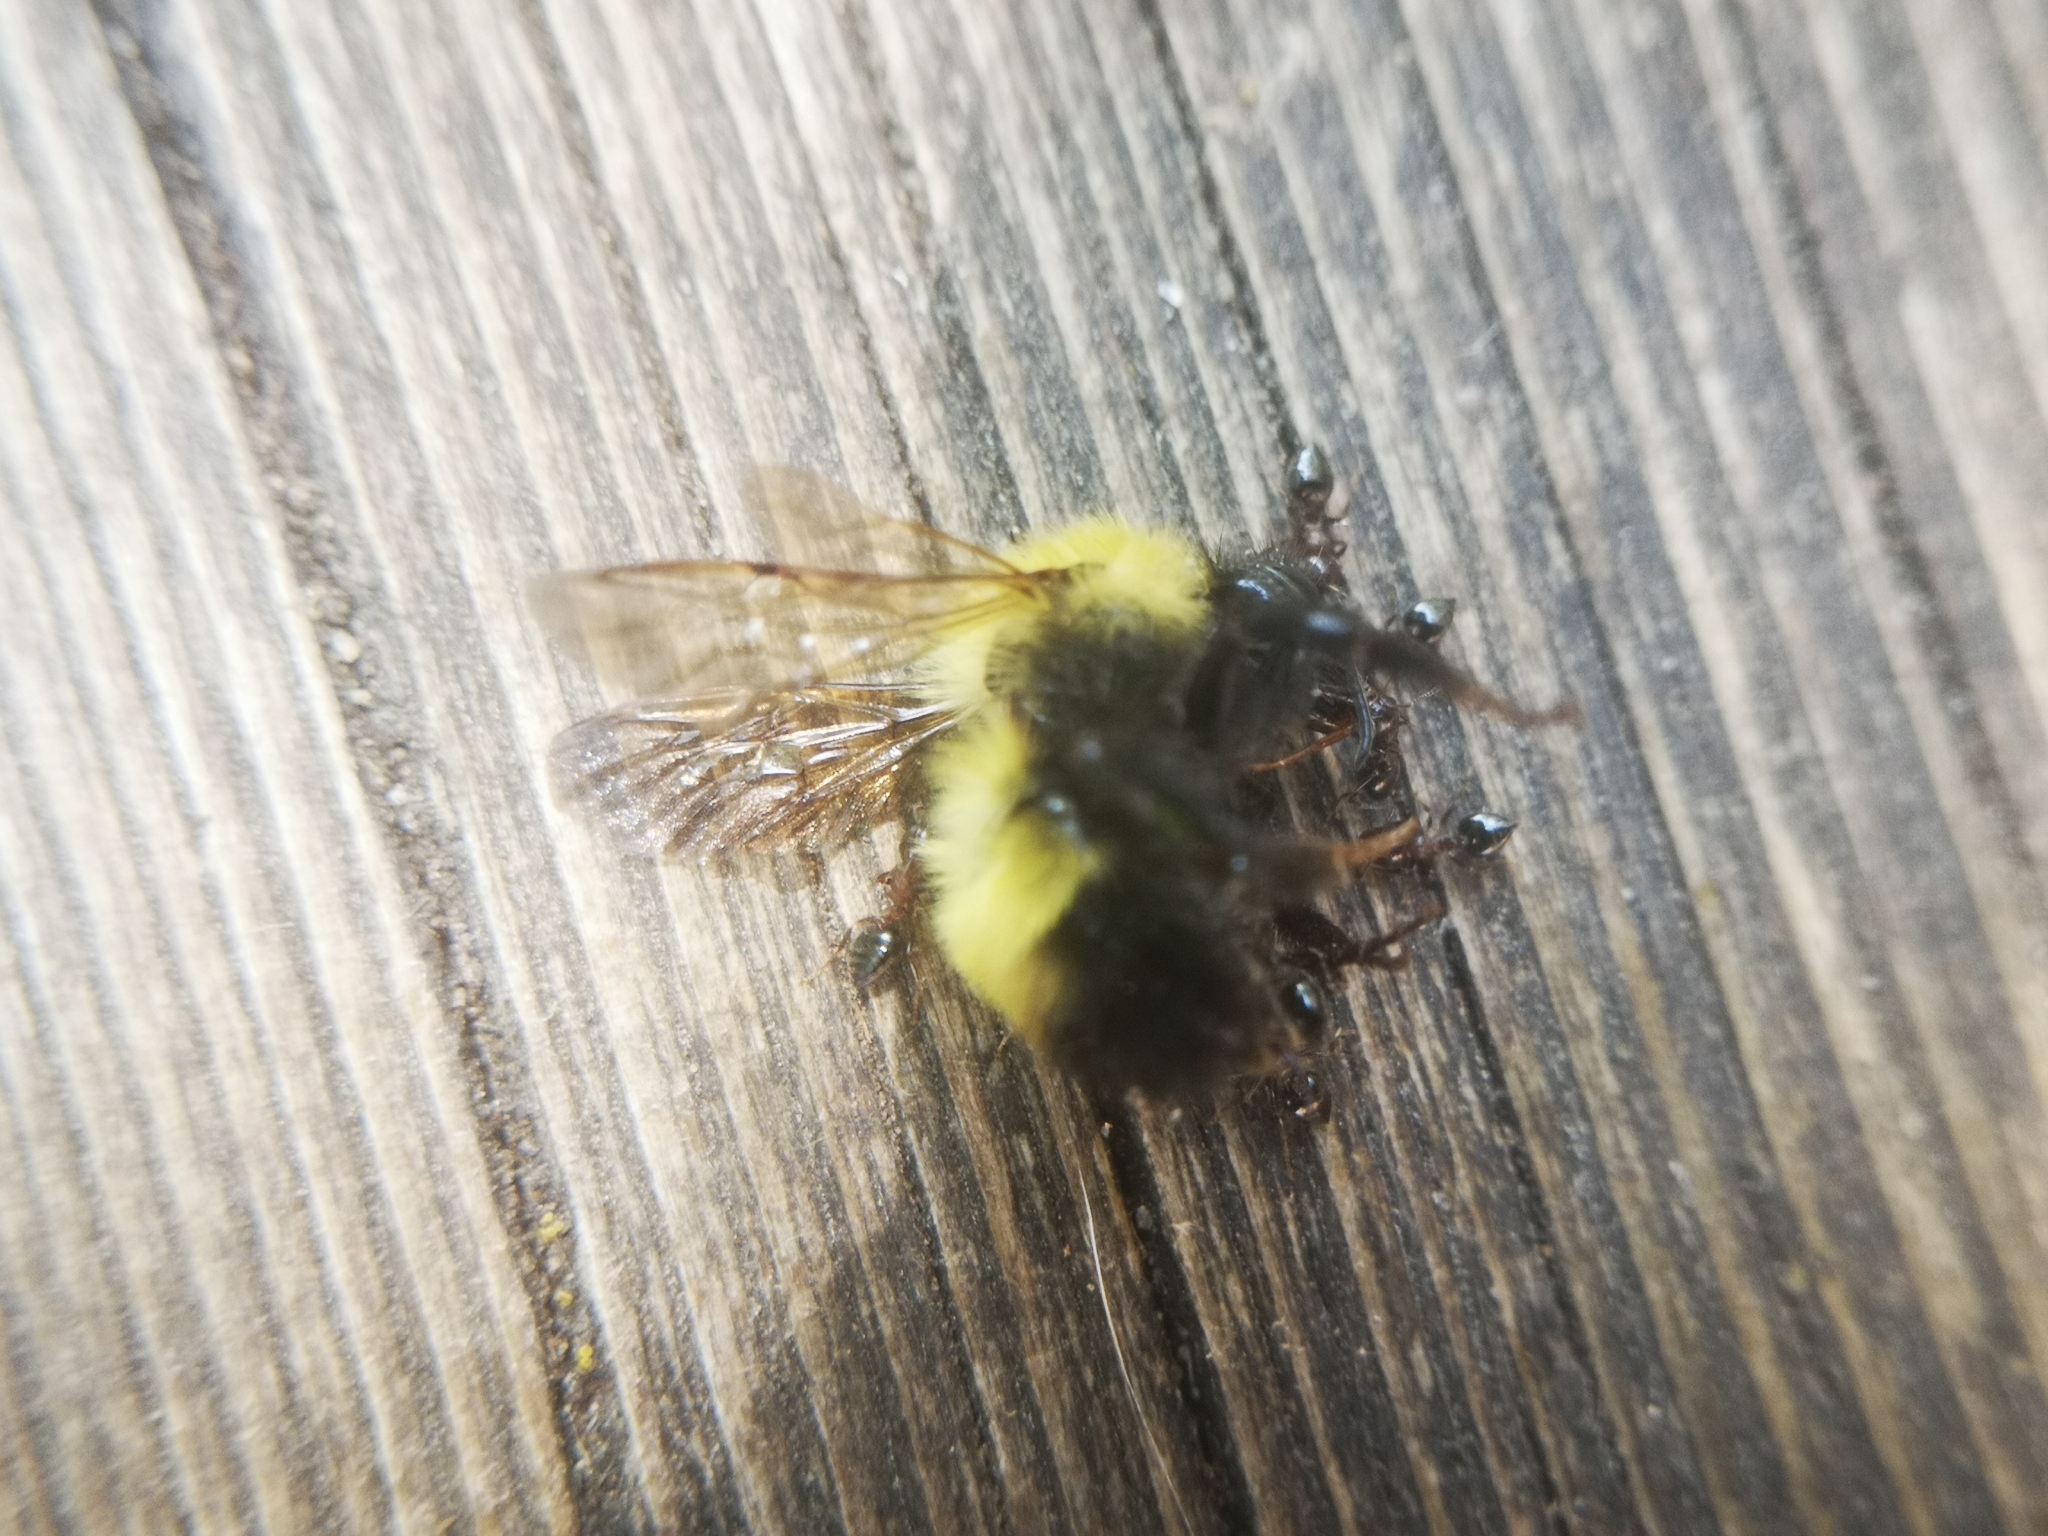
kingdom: Animalia
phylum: Arthropoda
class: Insecta
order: Hymenoptera
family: Apidae
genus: Bombus
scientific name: Bombus perplexus
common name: Confusing bumble bee
